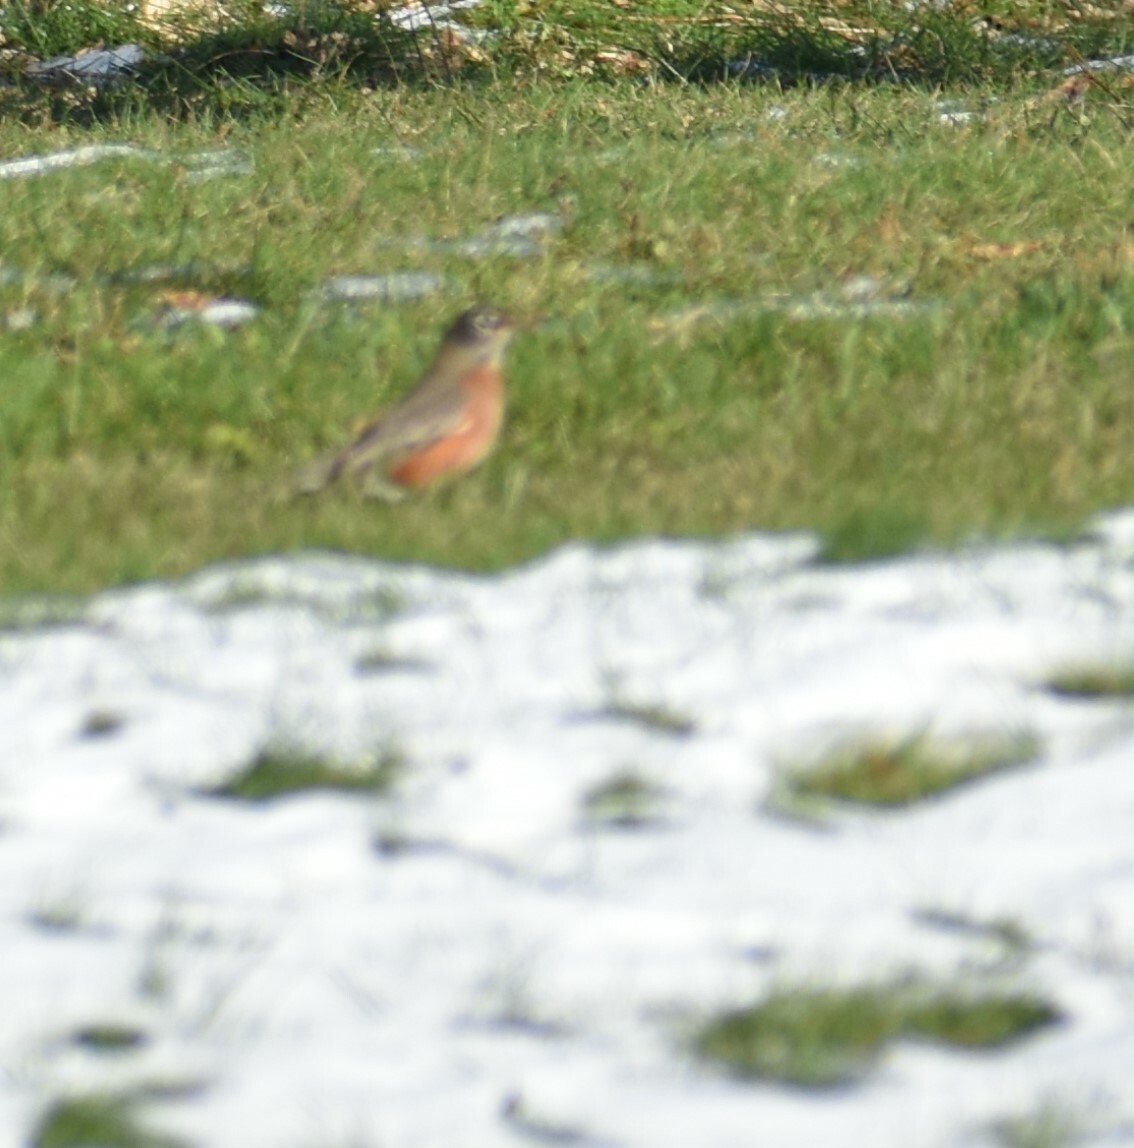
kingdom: Animalia
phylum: Chordata
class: Aves
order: Passeriformes
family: Turdidae
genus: Turdus
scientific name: Turdus migratorius
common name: American robin
